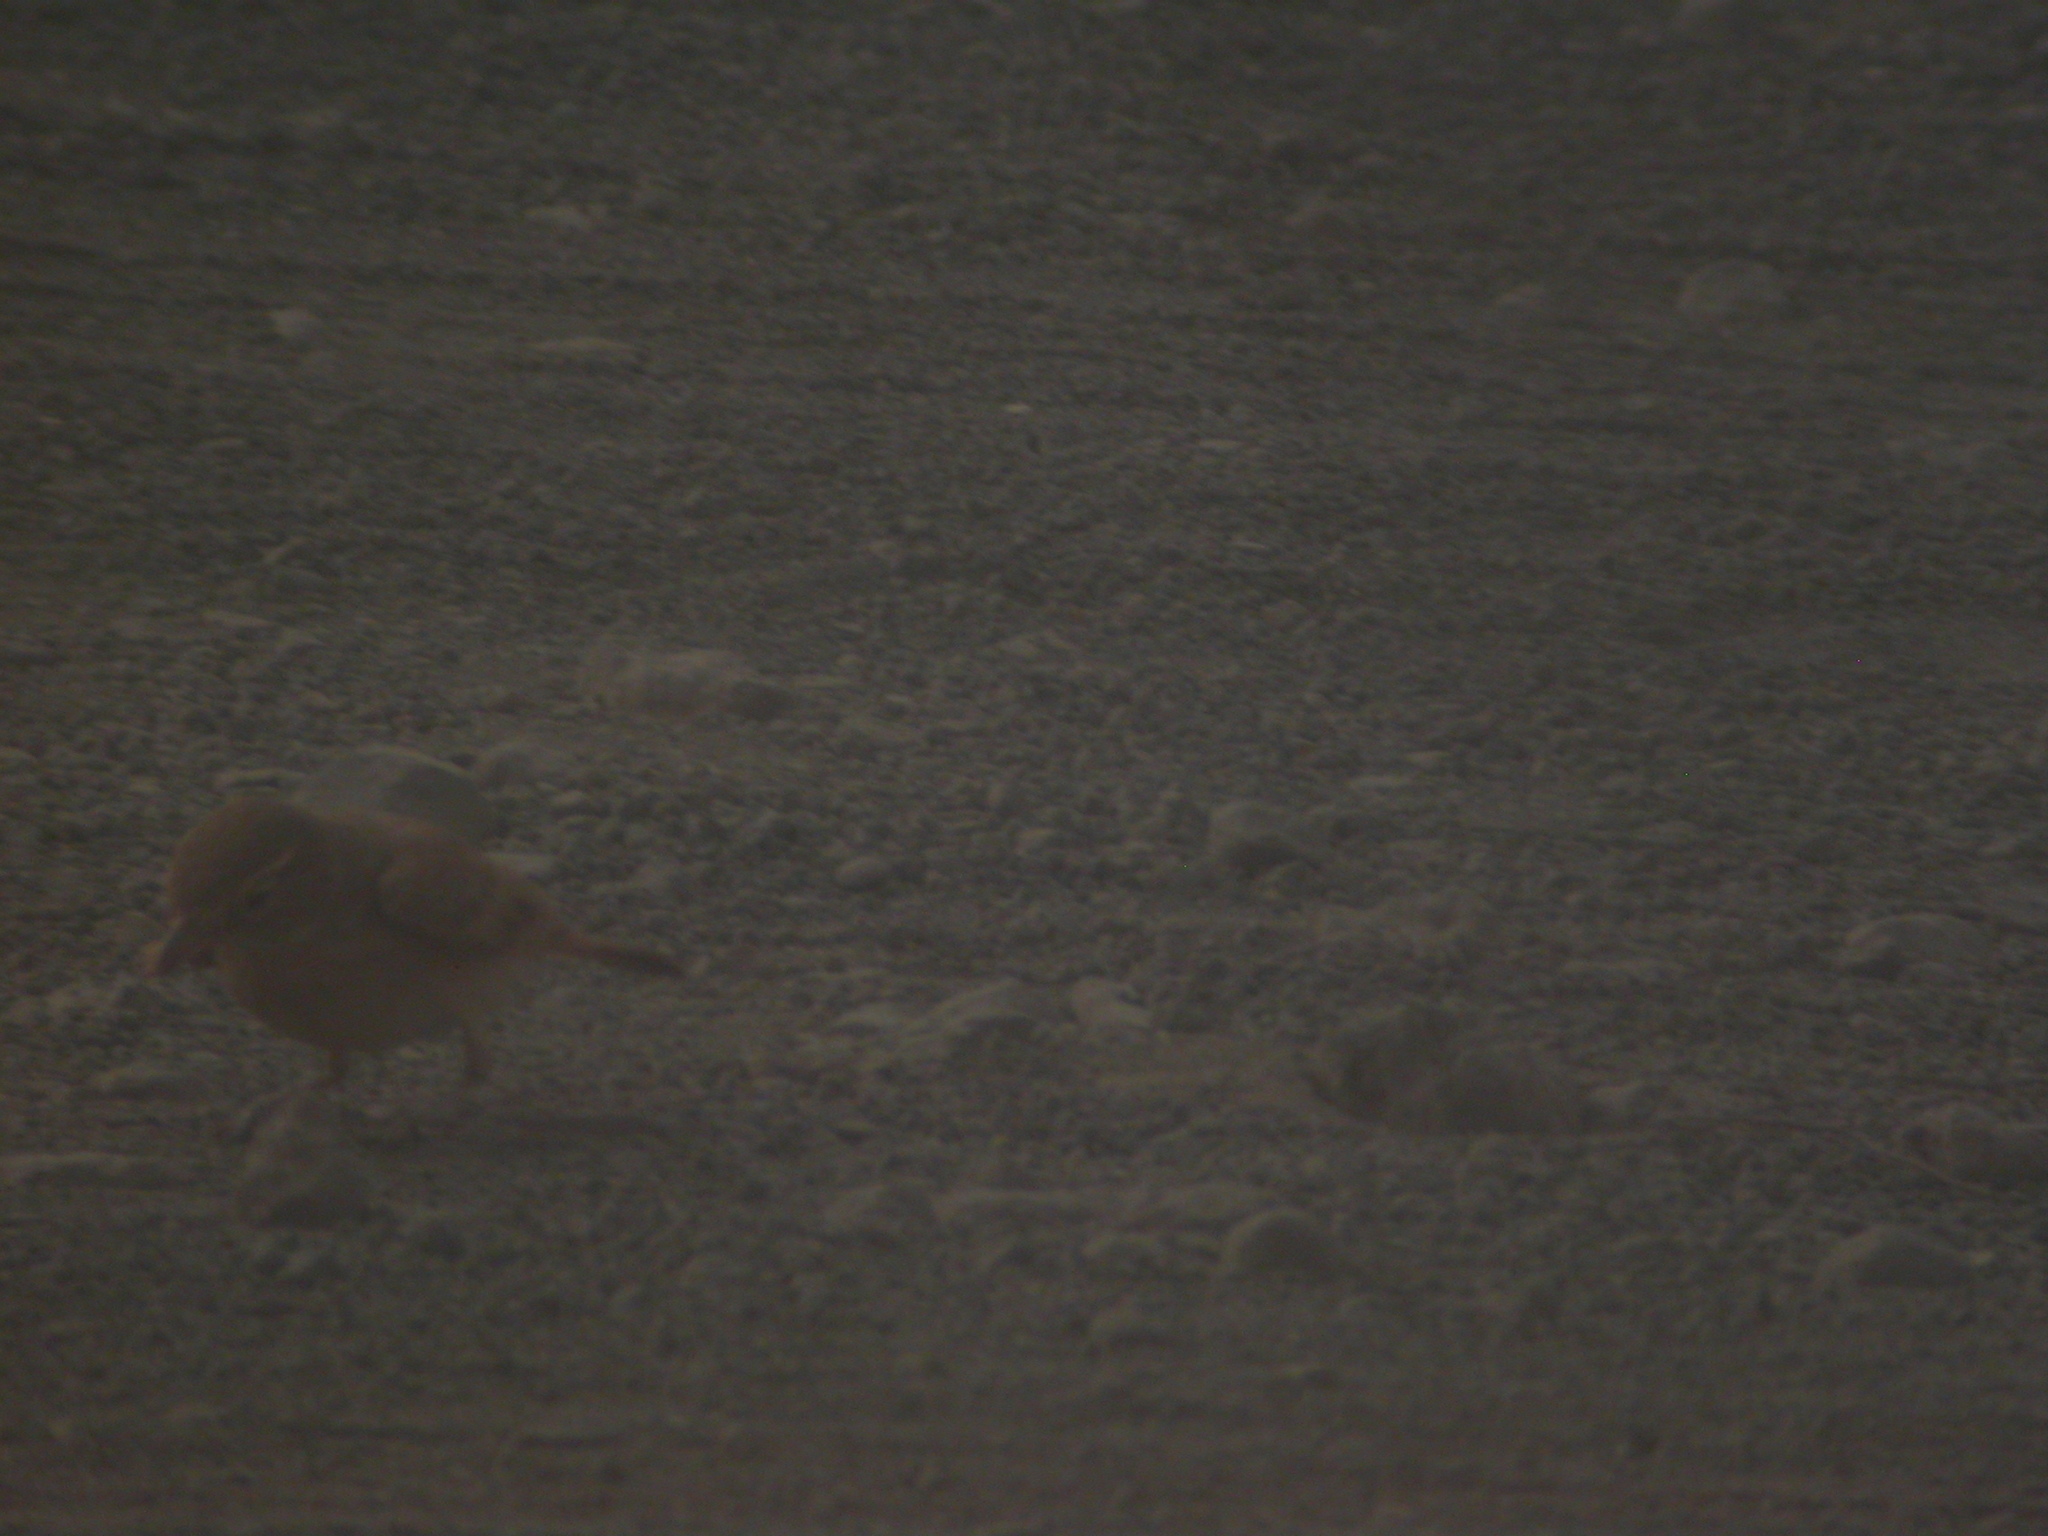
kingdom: Animalia
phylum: Chordata
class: Aves
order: Passeriformes
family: Alaudidae
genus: Ammomanes
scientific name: Ammomanes cinctura
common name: Bar-tailed lark
